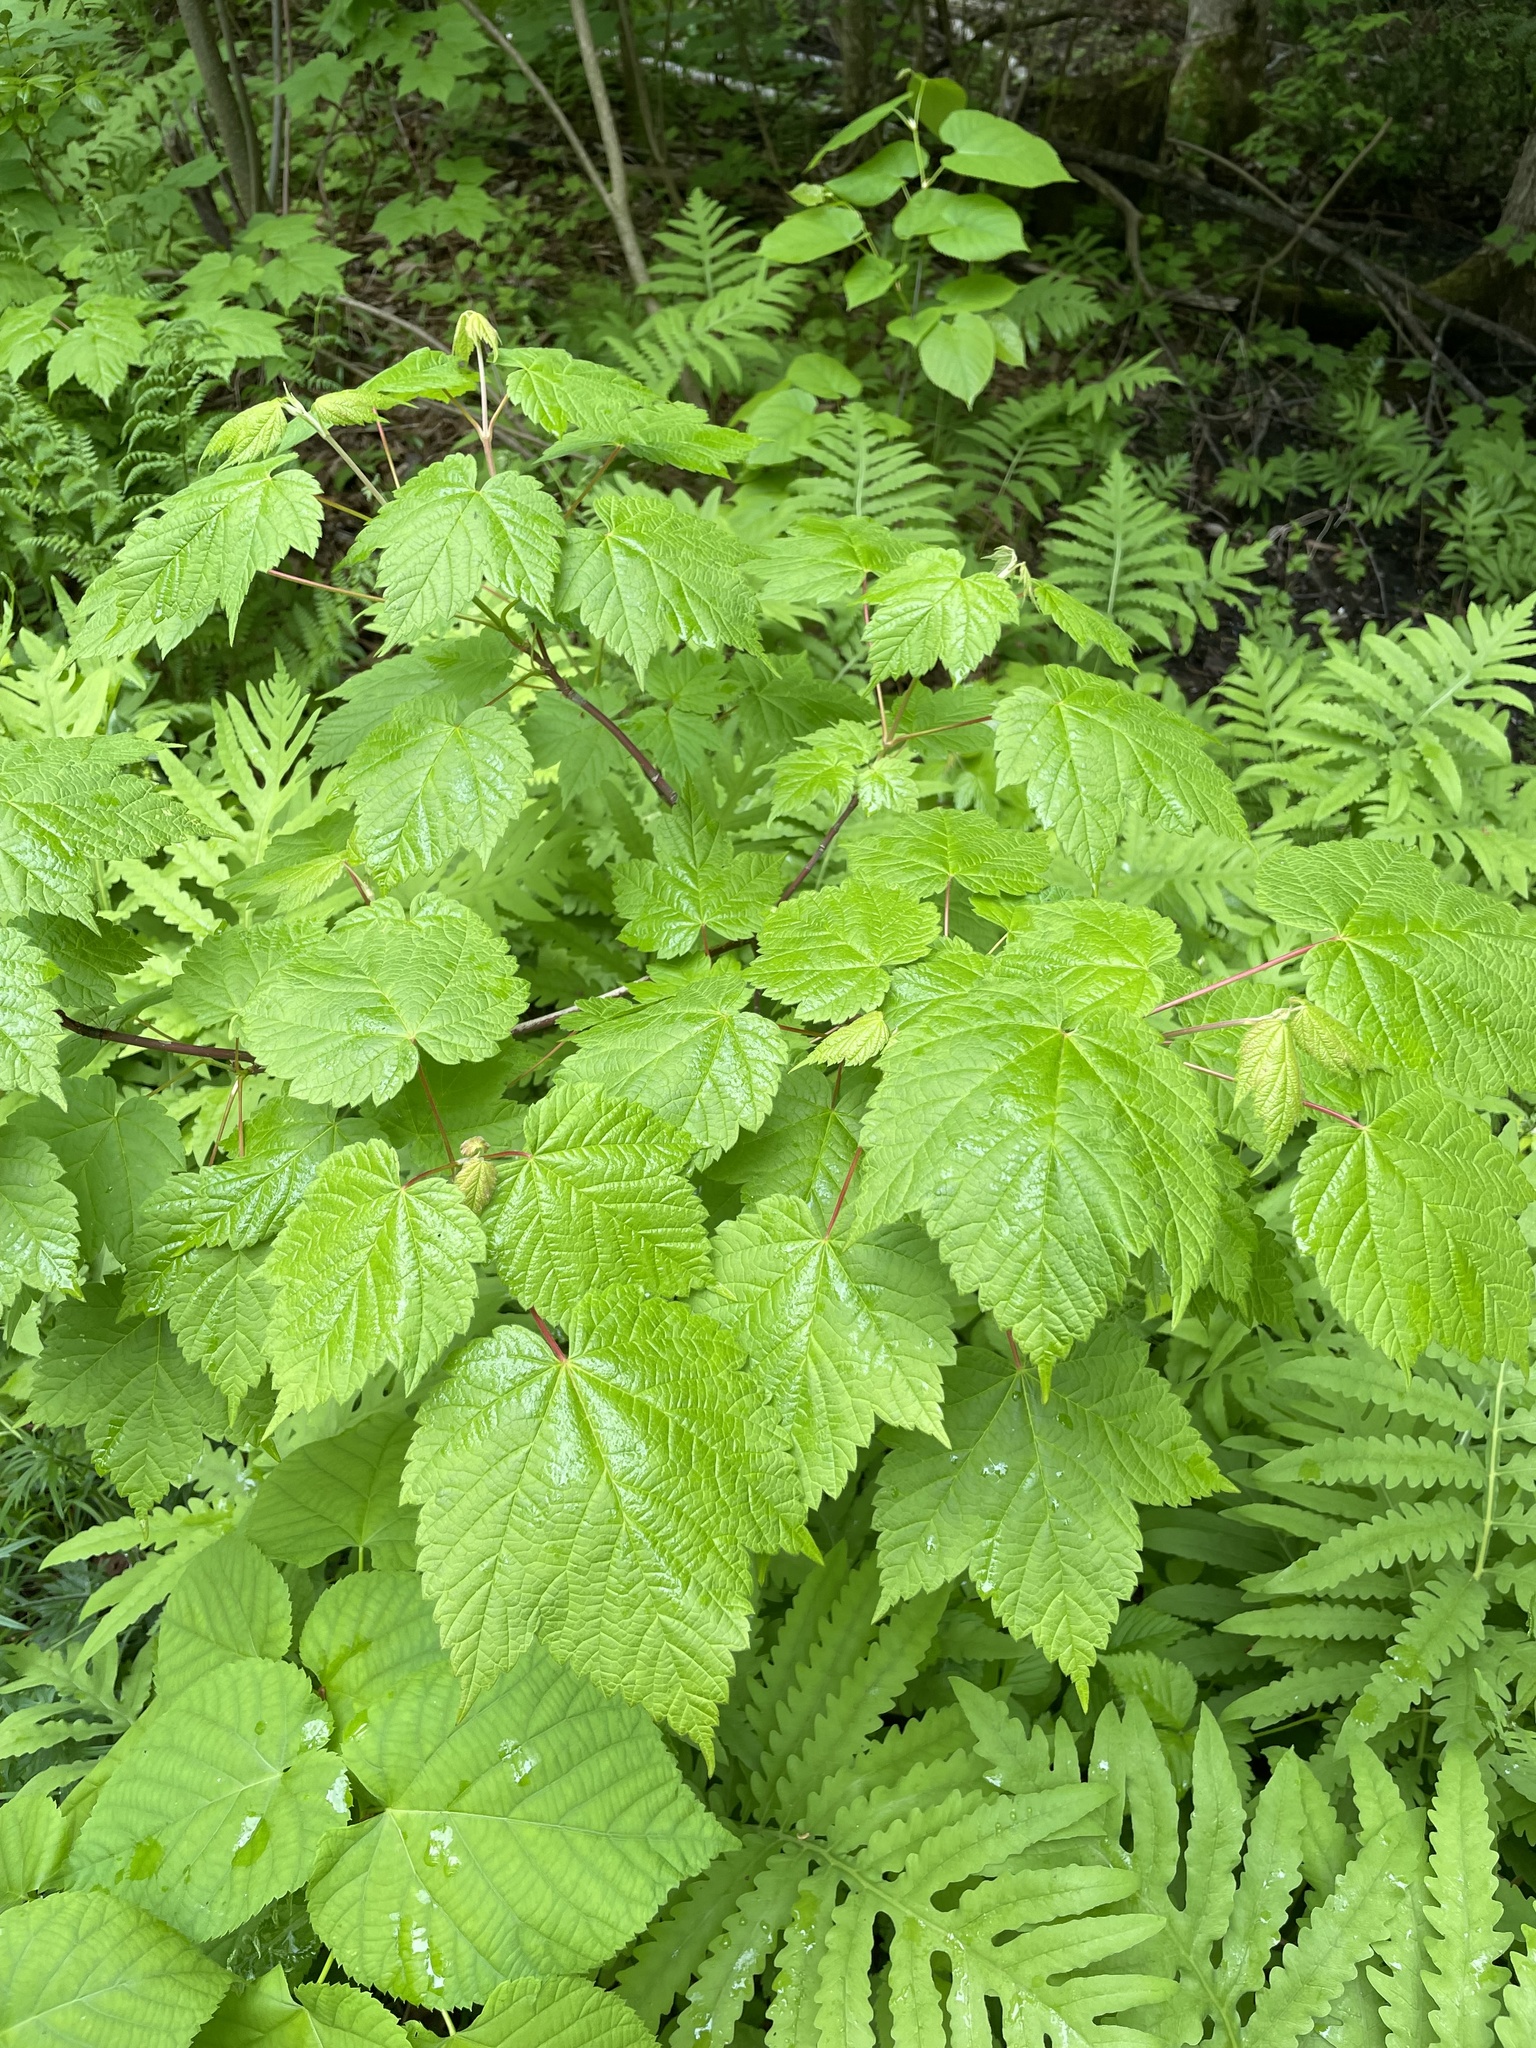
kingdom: Plantae
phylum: Tracheophyta
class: Magnoliopsida
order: Sapindales
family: Sapindaceae
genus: Acer
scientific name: Acer spicatum
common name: Mountain maple
